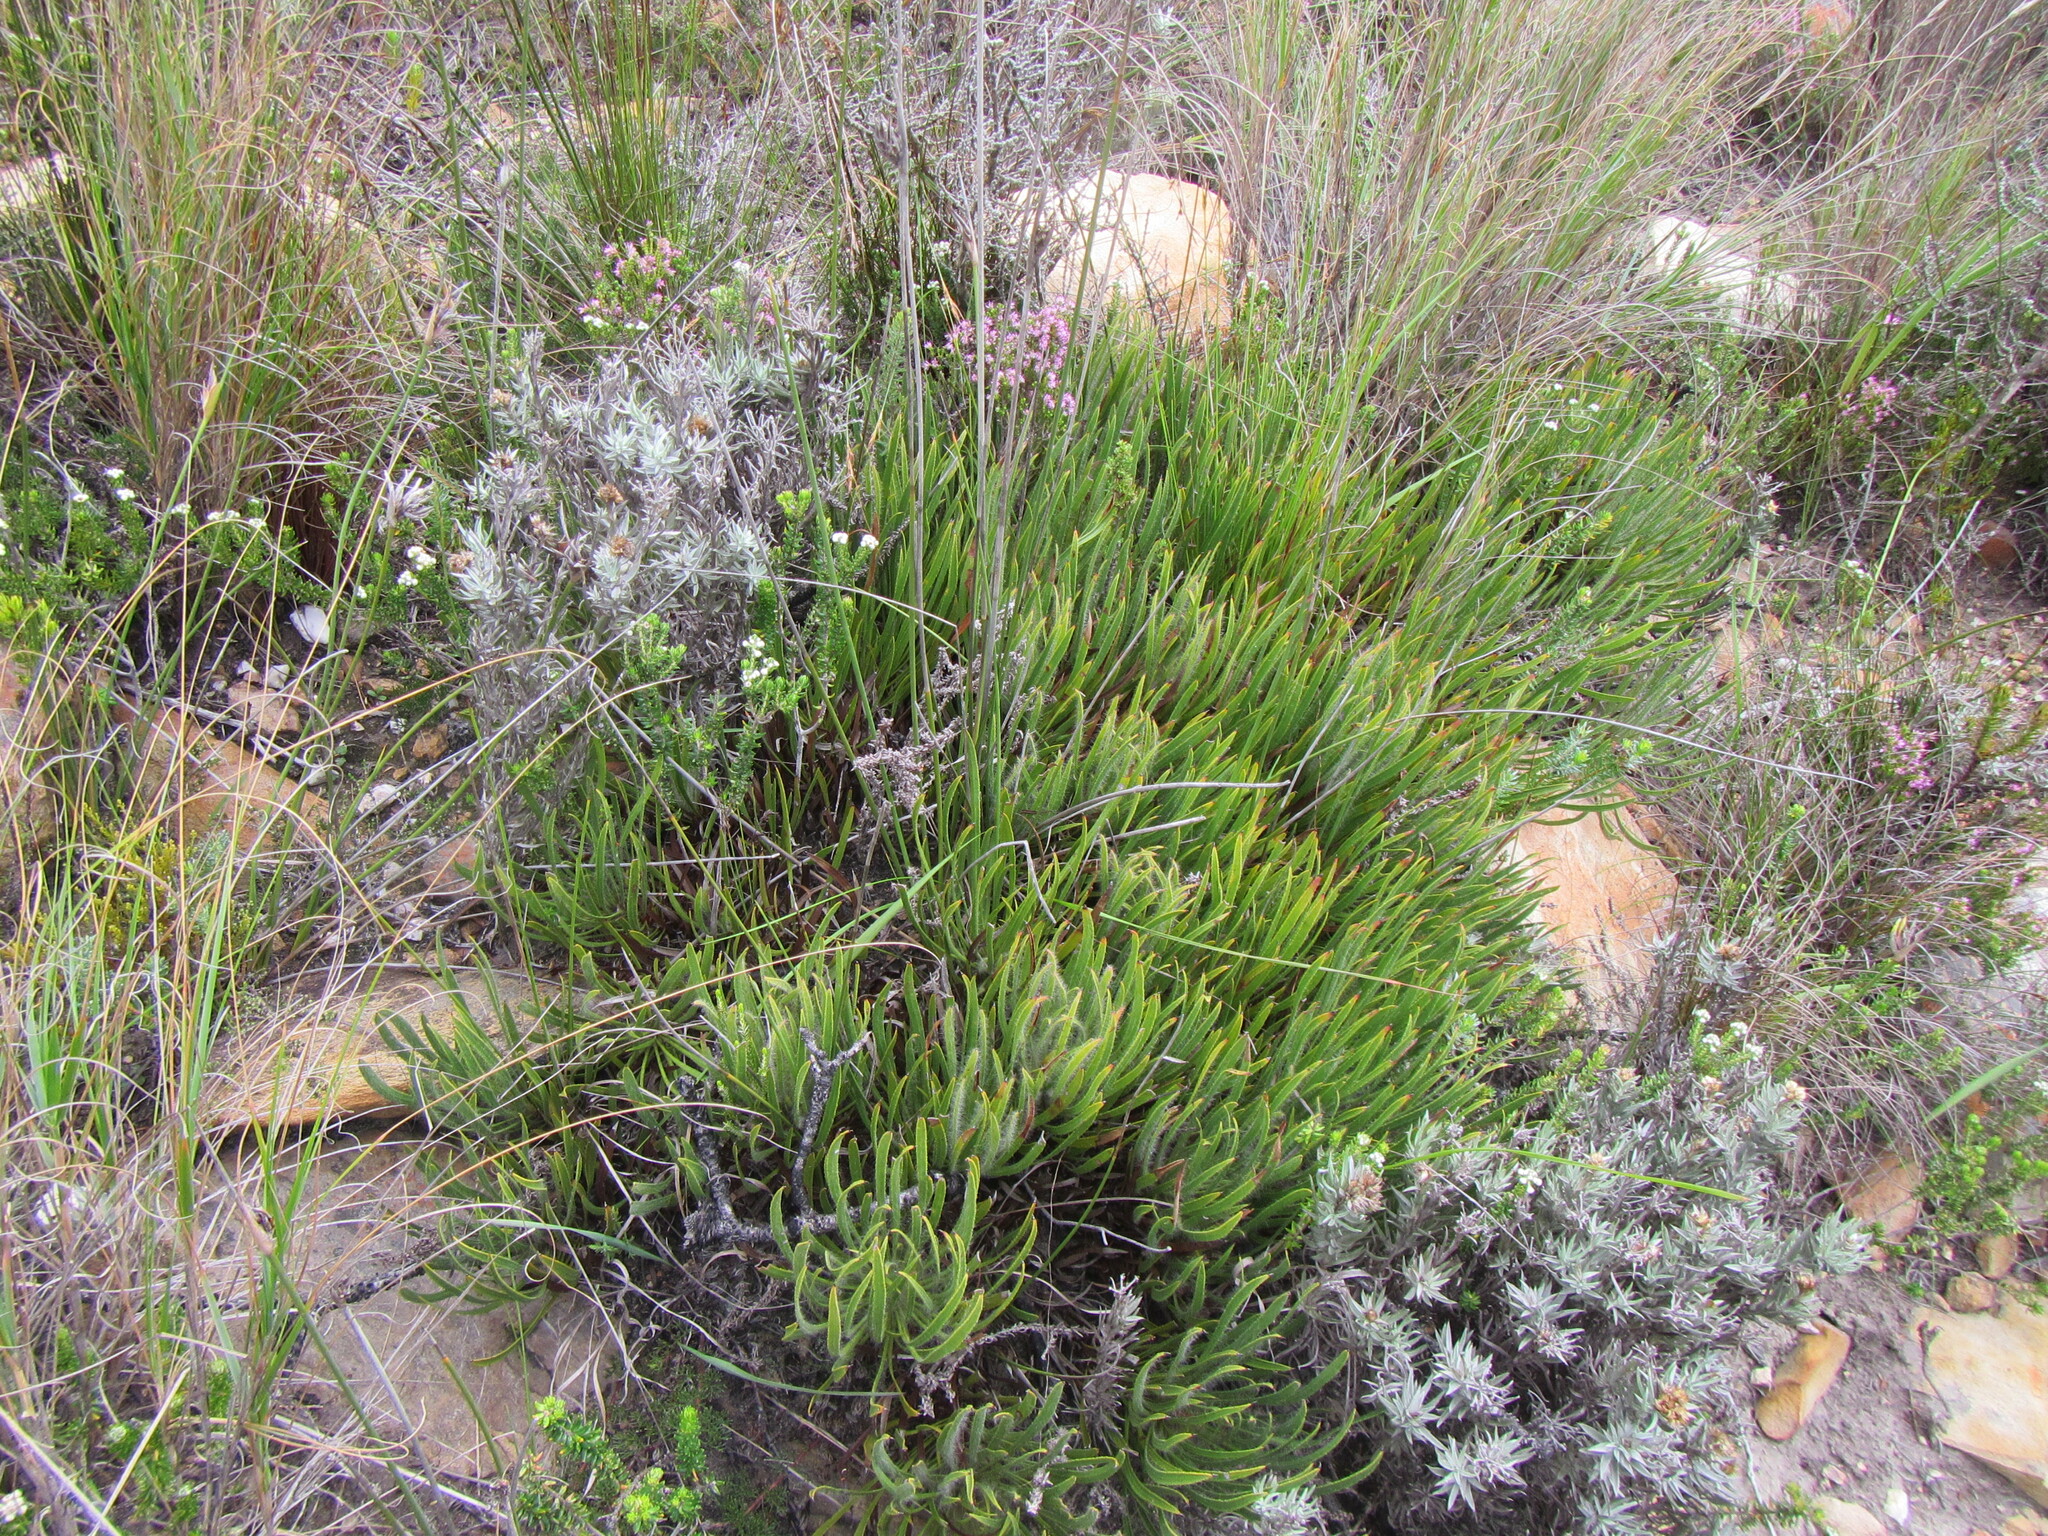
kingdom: Plantae
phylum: Tracheophyta
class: Magnoliopsida
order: Proteales
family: Proteaceae
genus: Protea
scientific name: Protea denticulata
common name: Tooth-leaf sugarbush
